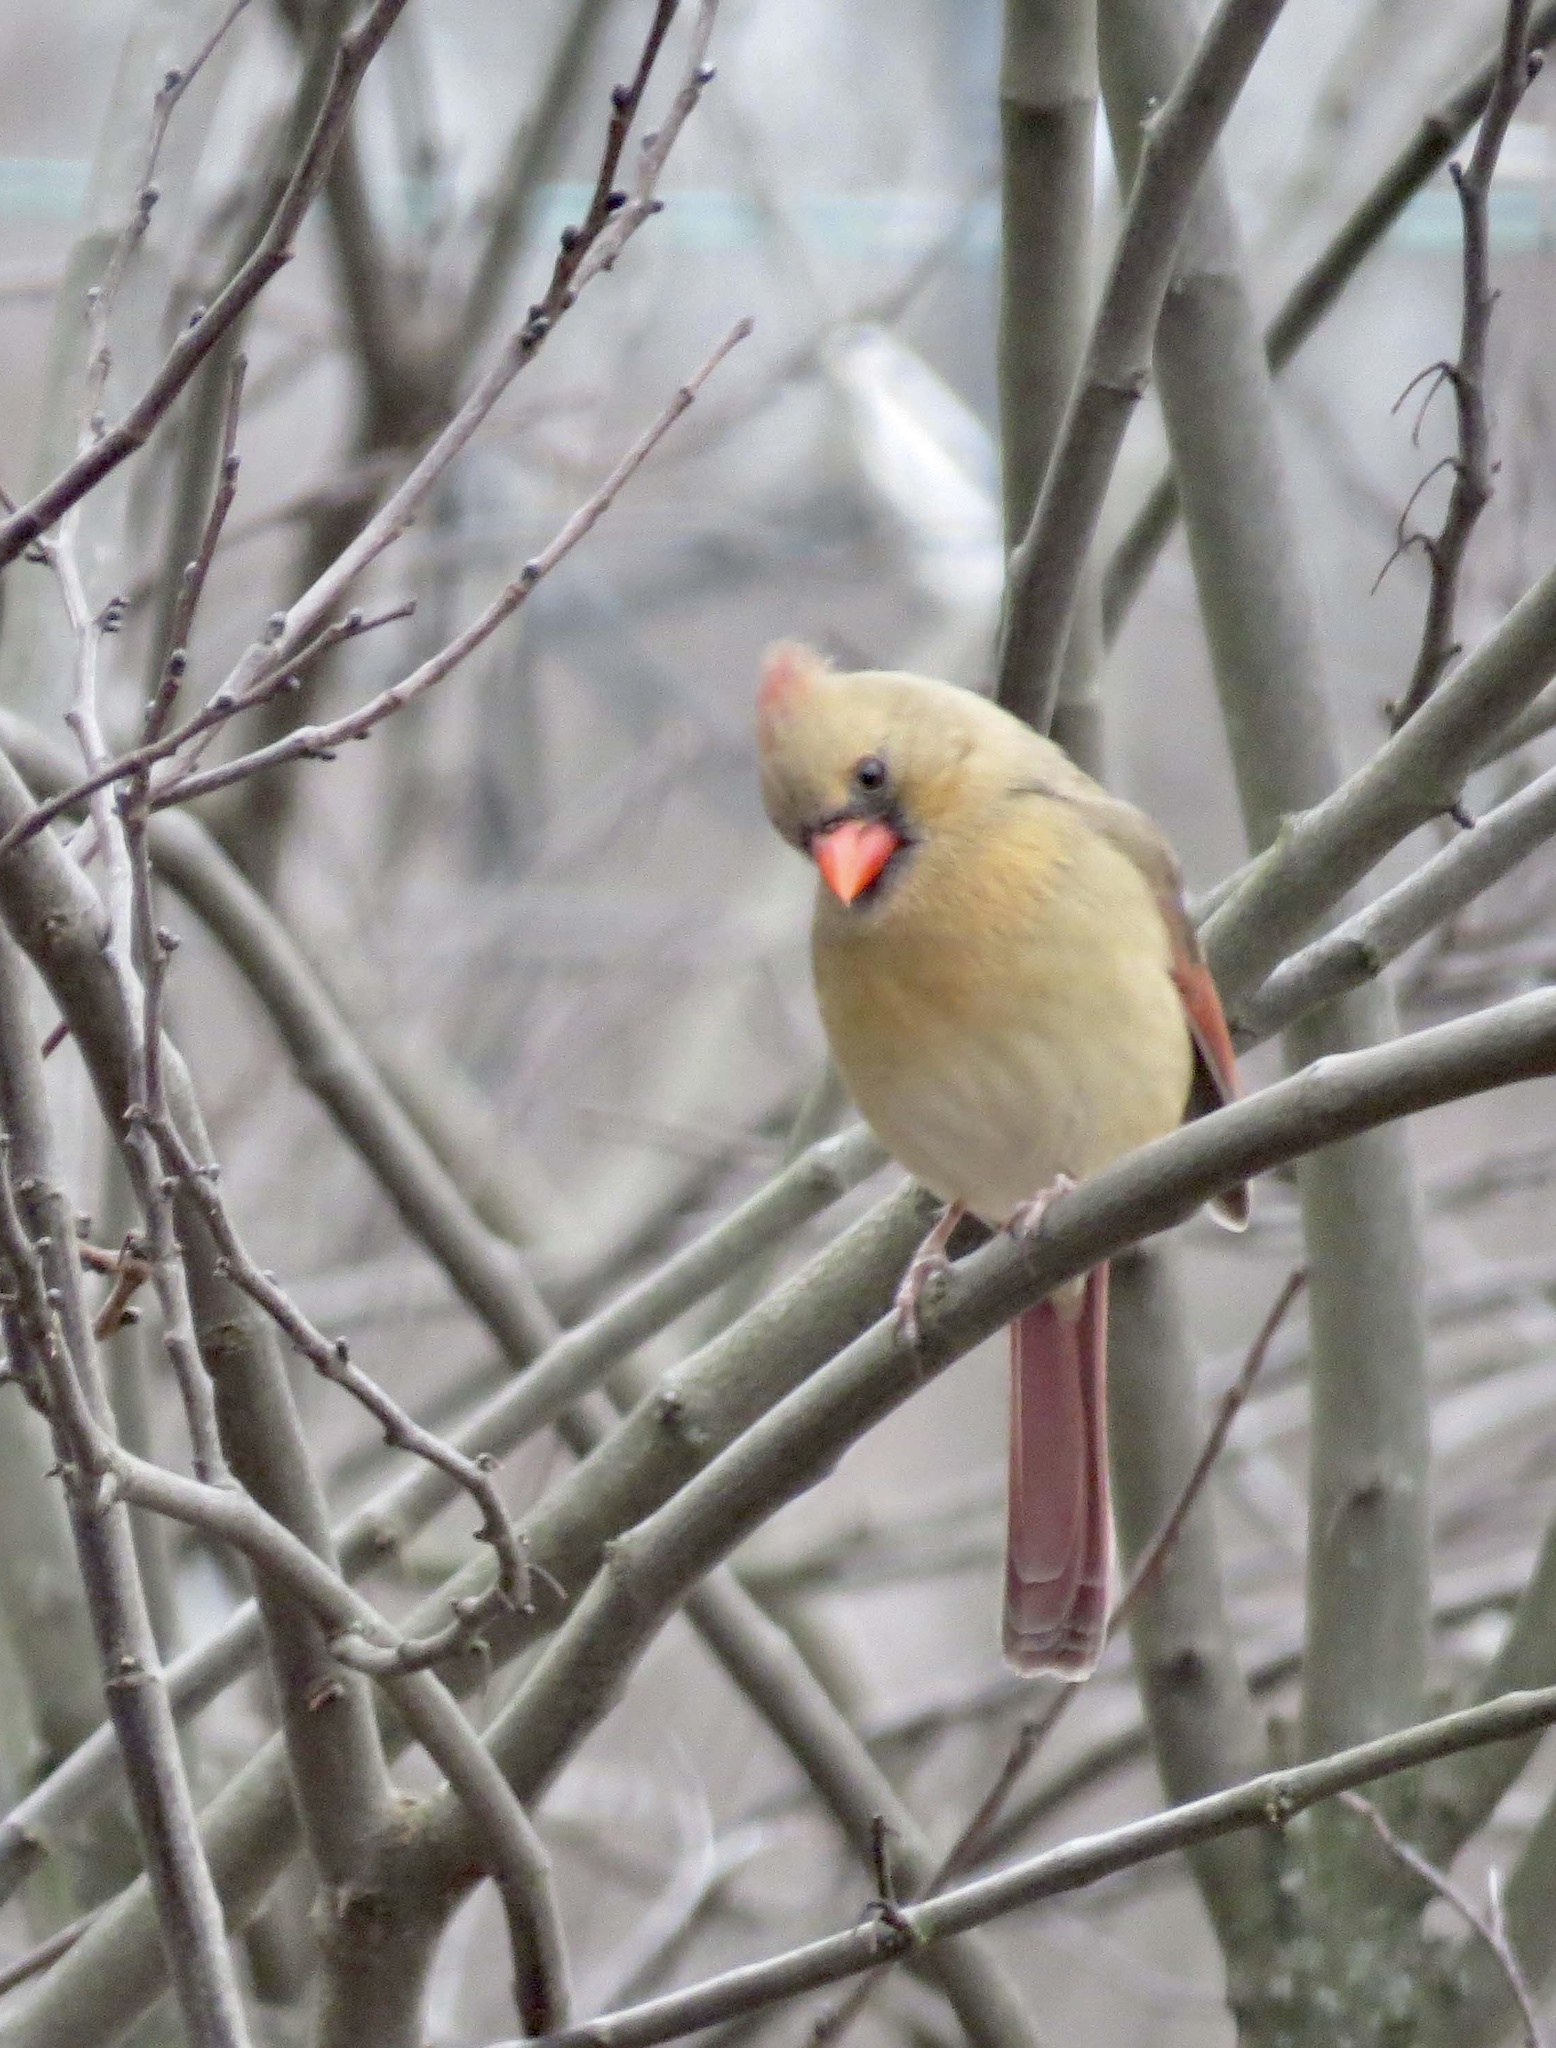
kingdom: Animalia
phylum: Chordata
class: Aves
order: Passeriformes
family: Cardinalidae
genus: Cardinalis
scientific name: Cardinalis cardinalis
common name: Northern cardinal
